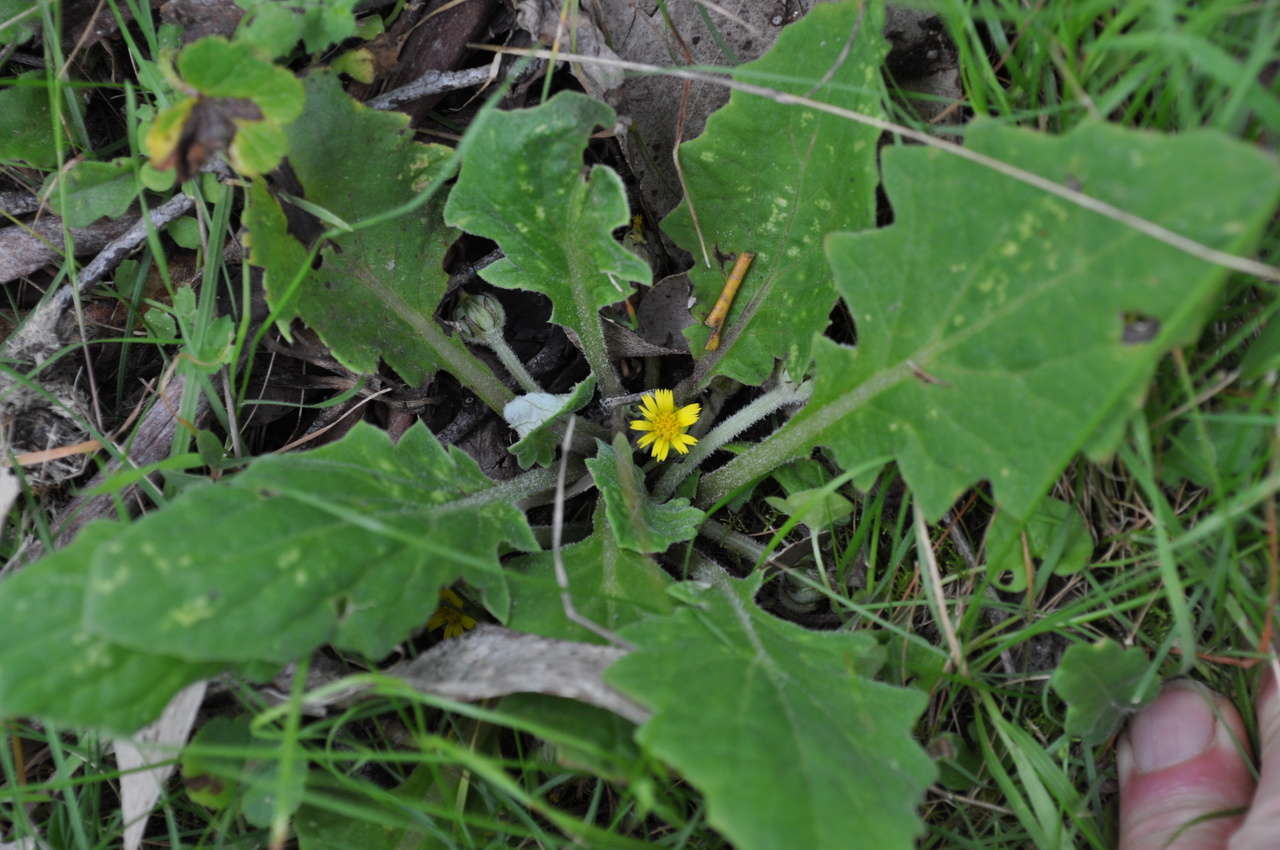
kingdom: Plantae
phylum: Tracheophyta
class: Magnoliopsida
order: Asterales
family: Asteraceae
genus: Cymbonotus
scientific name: Cymbonotus preissianus
